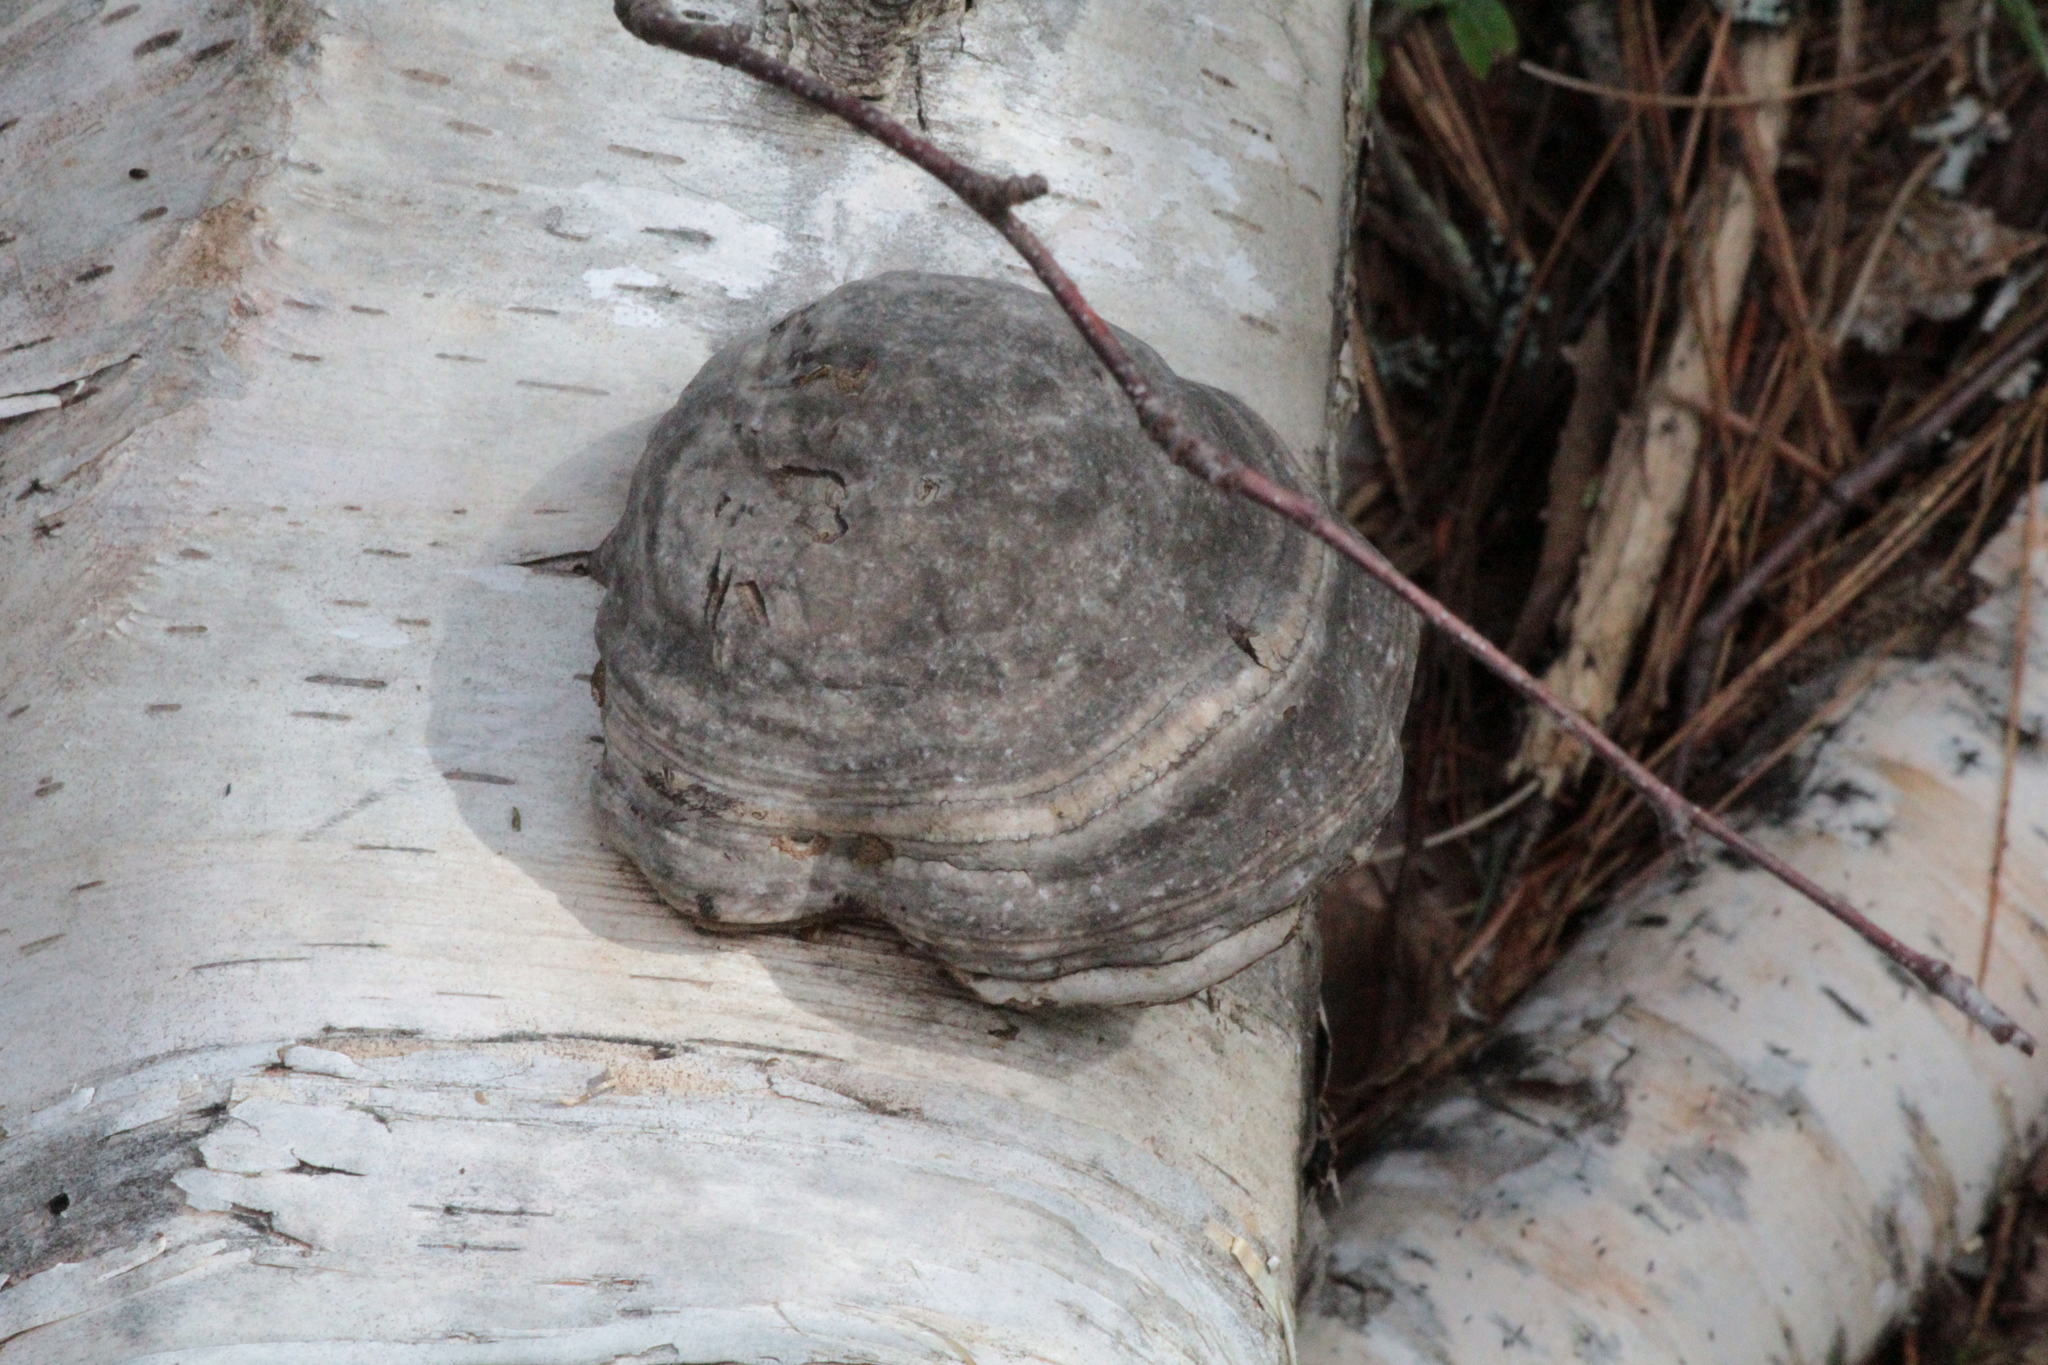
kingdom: Fungi
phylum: Basidiomycota
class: Agaricomycetes
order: Polyporales
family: Polyporaceae
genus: Fomes
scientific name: Fomes fomentarius
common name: Hoof fungus
